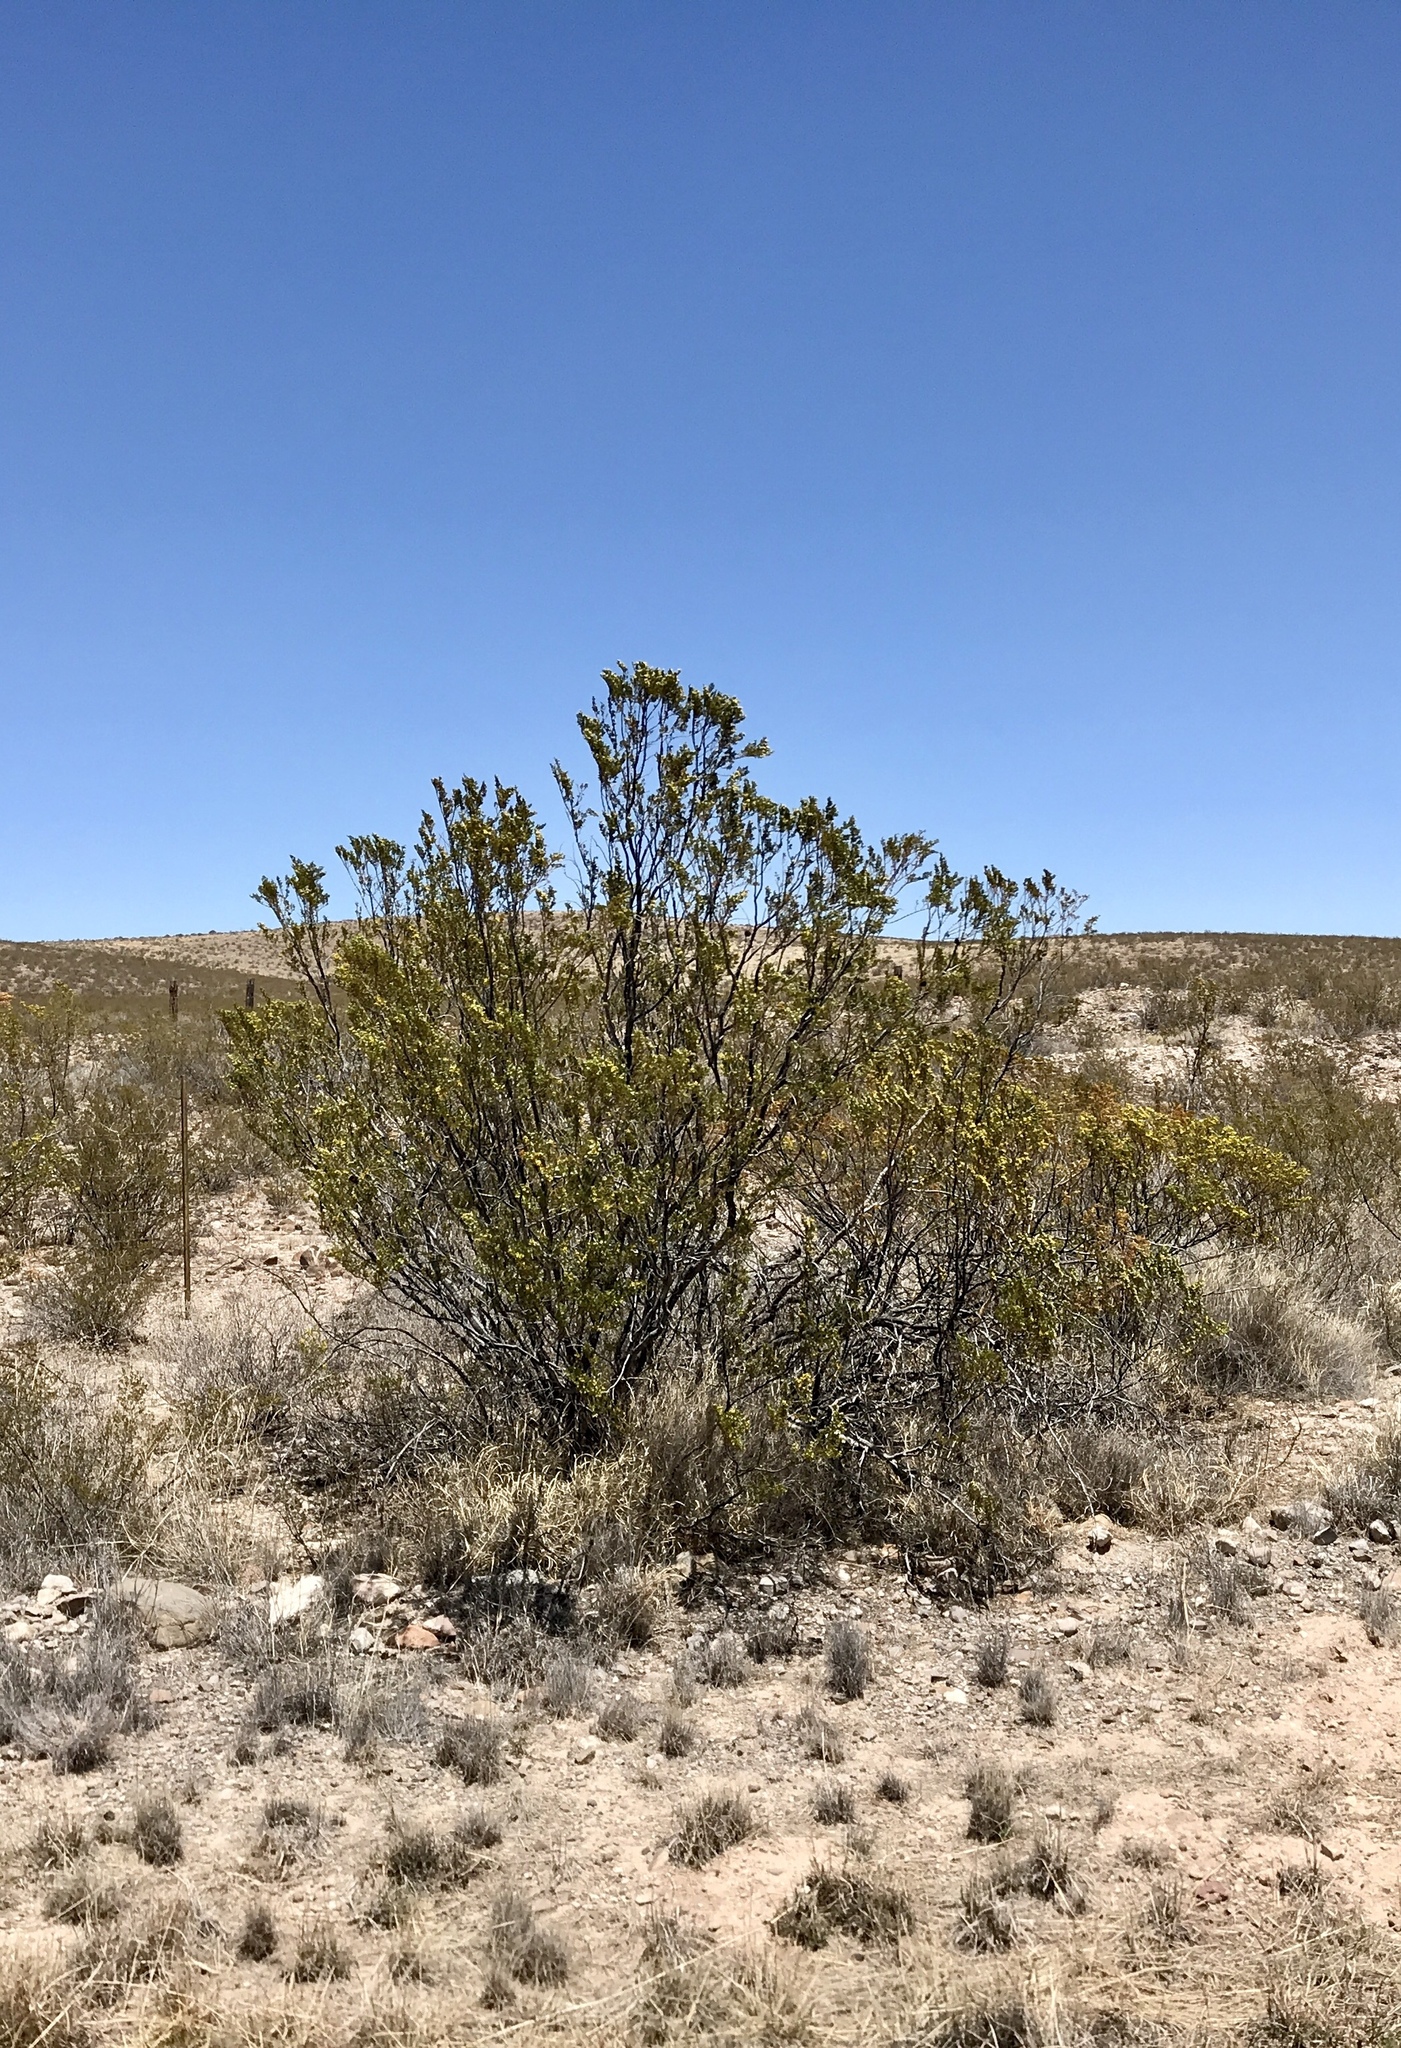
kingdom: Plantae
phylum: Tracheophyta
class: Magnoliopsida
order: Zygophyllales
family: Zygophyllaceae
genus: Larrea
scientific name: Larrea tridentata
